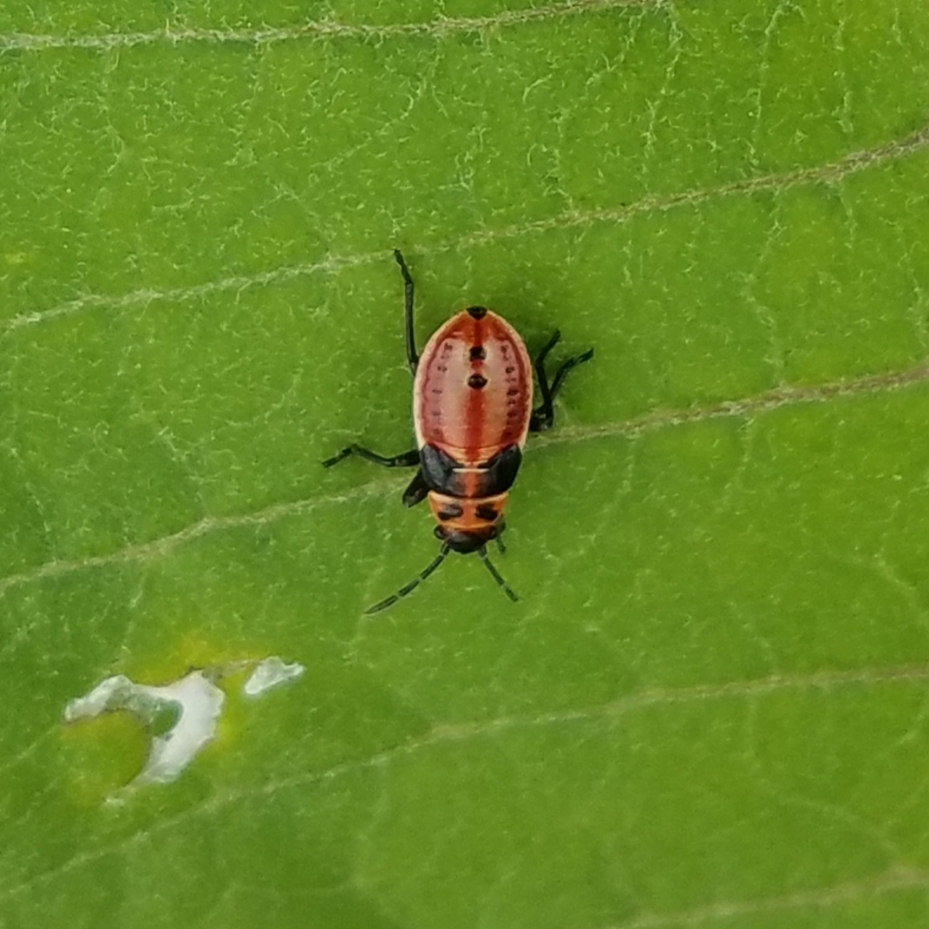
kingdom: Animalia
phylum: Arthropoda
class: Insecta
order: Hemiptera
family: Lygaeidae
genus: Lygaeus
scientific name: Lygaeus kalmii
